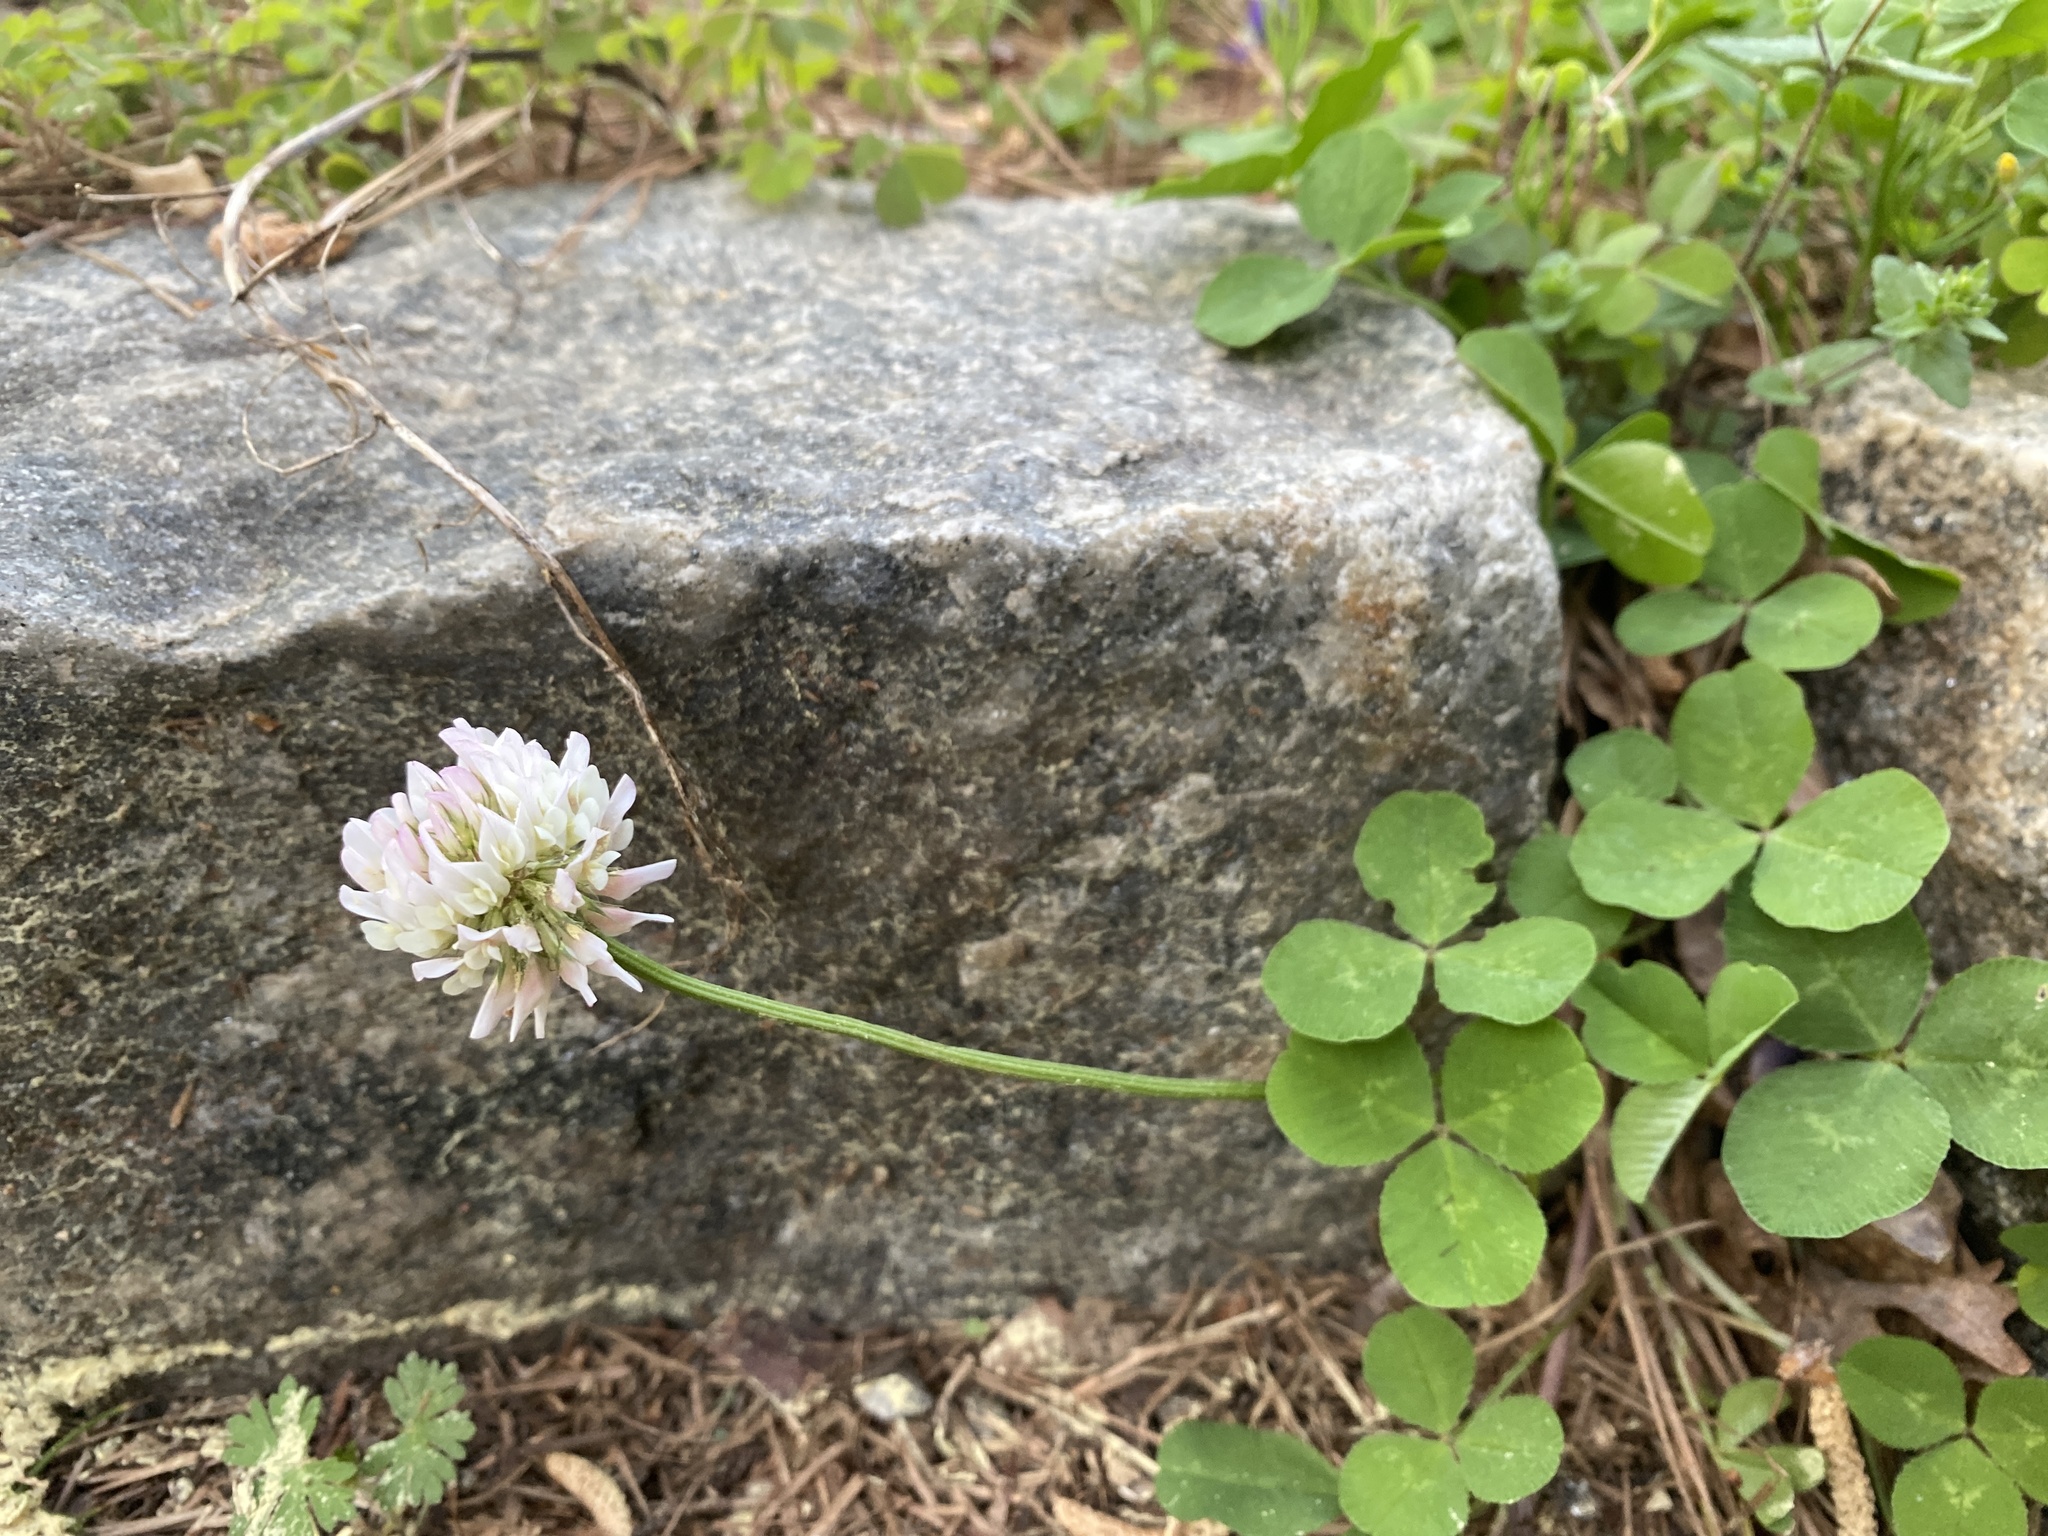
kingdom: Plantae
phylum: Tracheophyta
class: Magnoliopsida
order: Fabales
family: Fabaceae
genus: Trifolium
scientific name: Trifolium repens
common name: White clover
